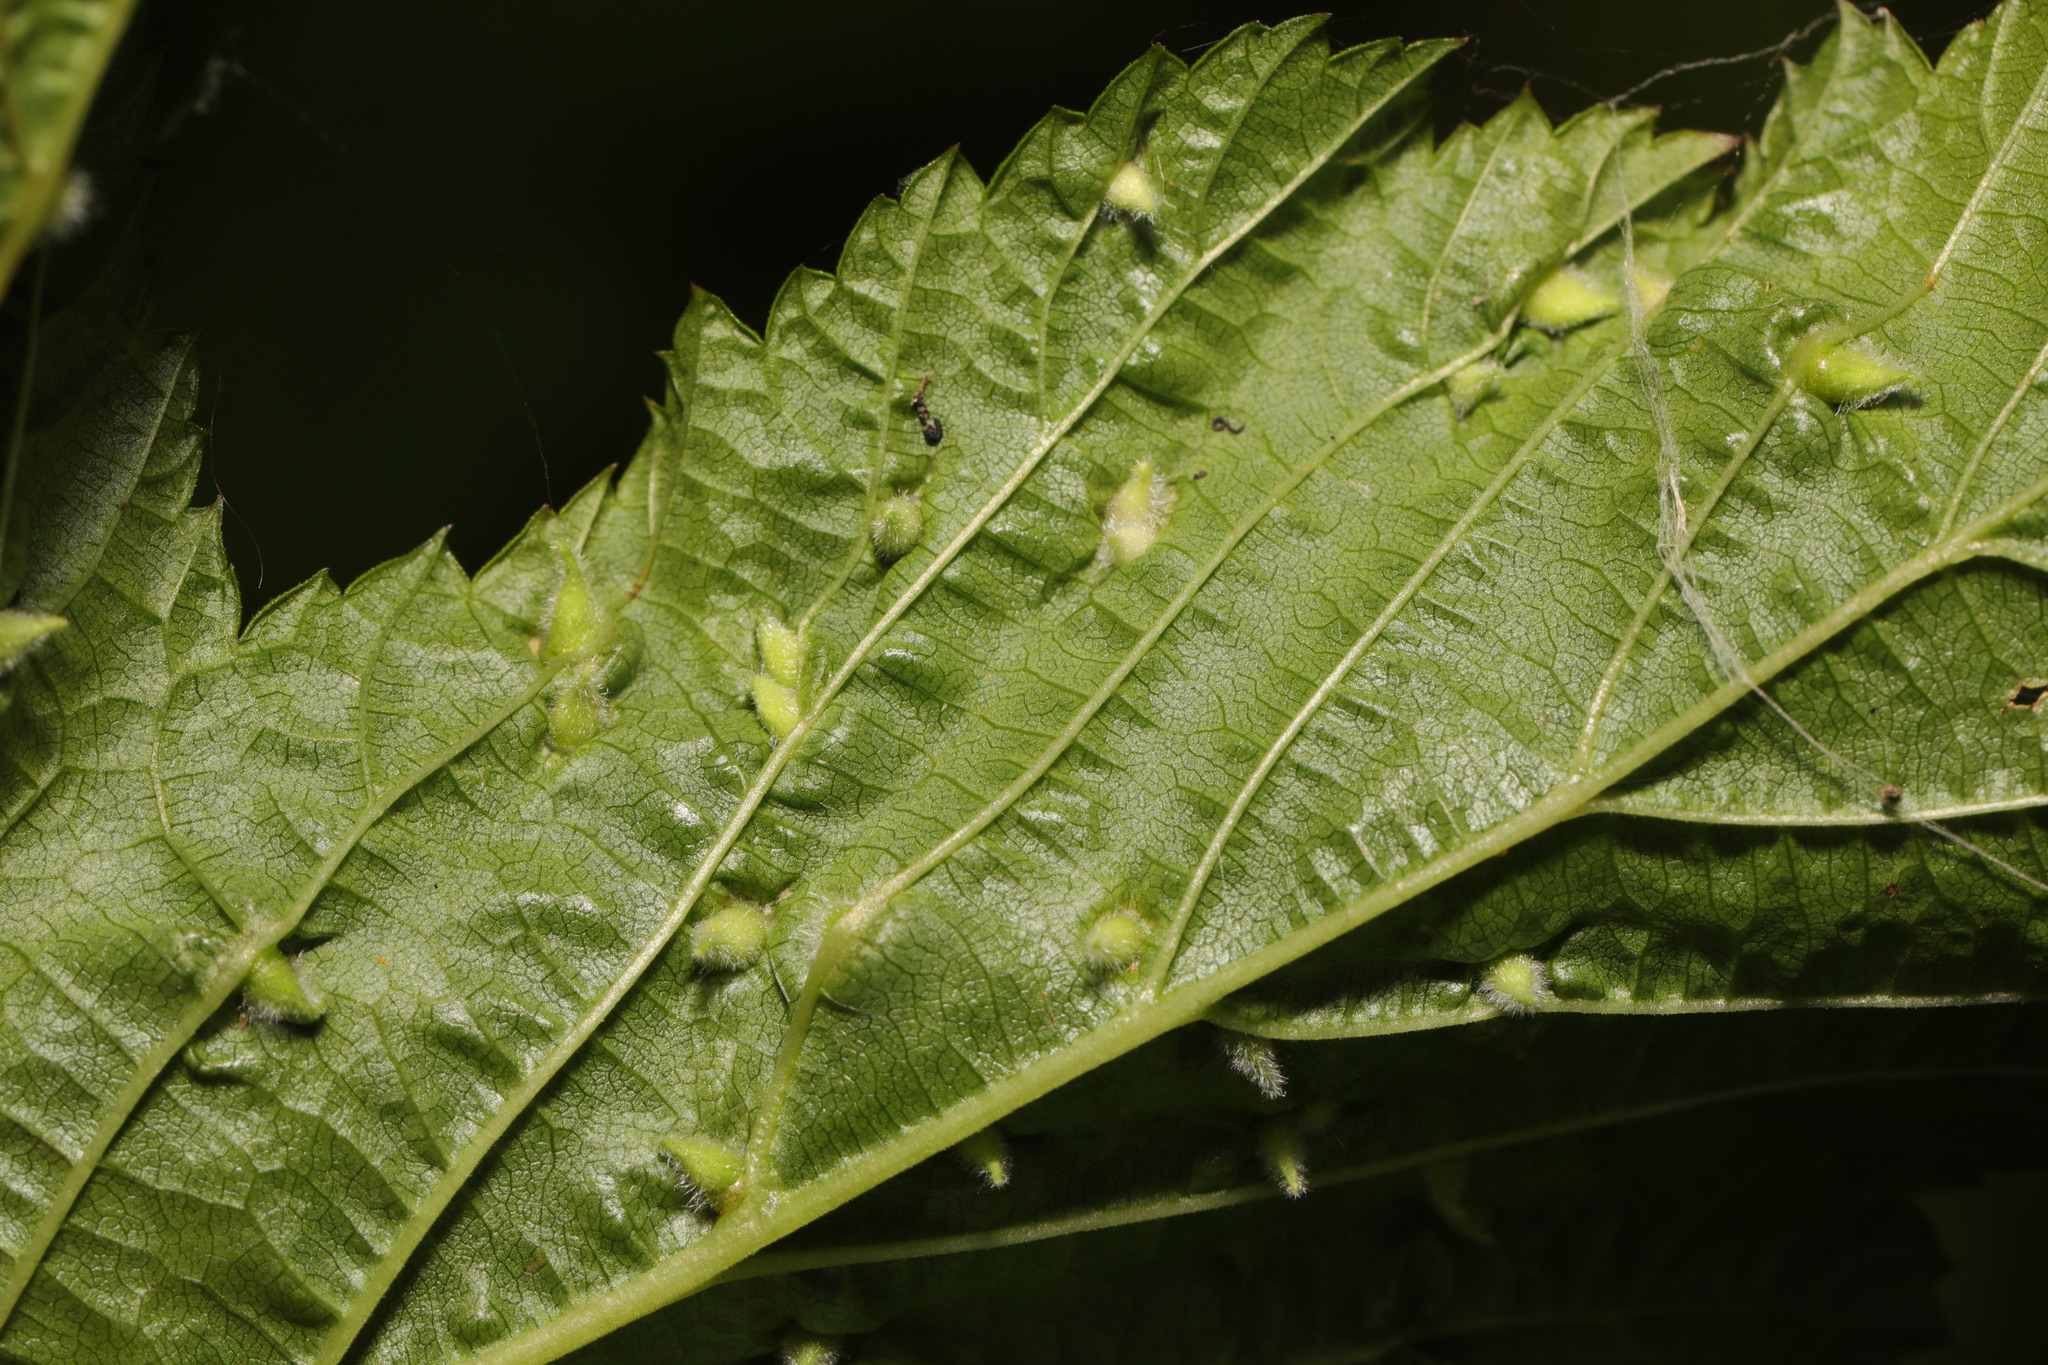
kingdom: Animalia
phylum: Arthropoda
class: Insecta
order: Diptera
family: Cecidomyiidae
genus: Dasineura
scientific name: Dasineura ulmaria
